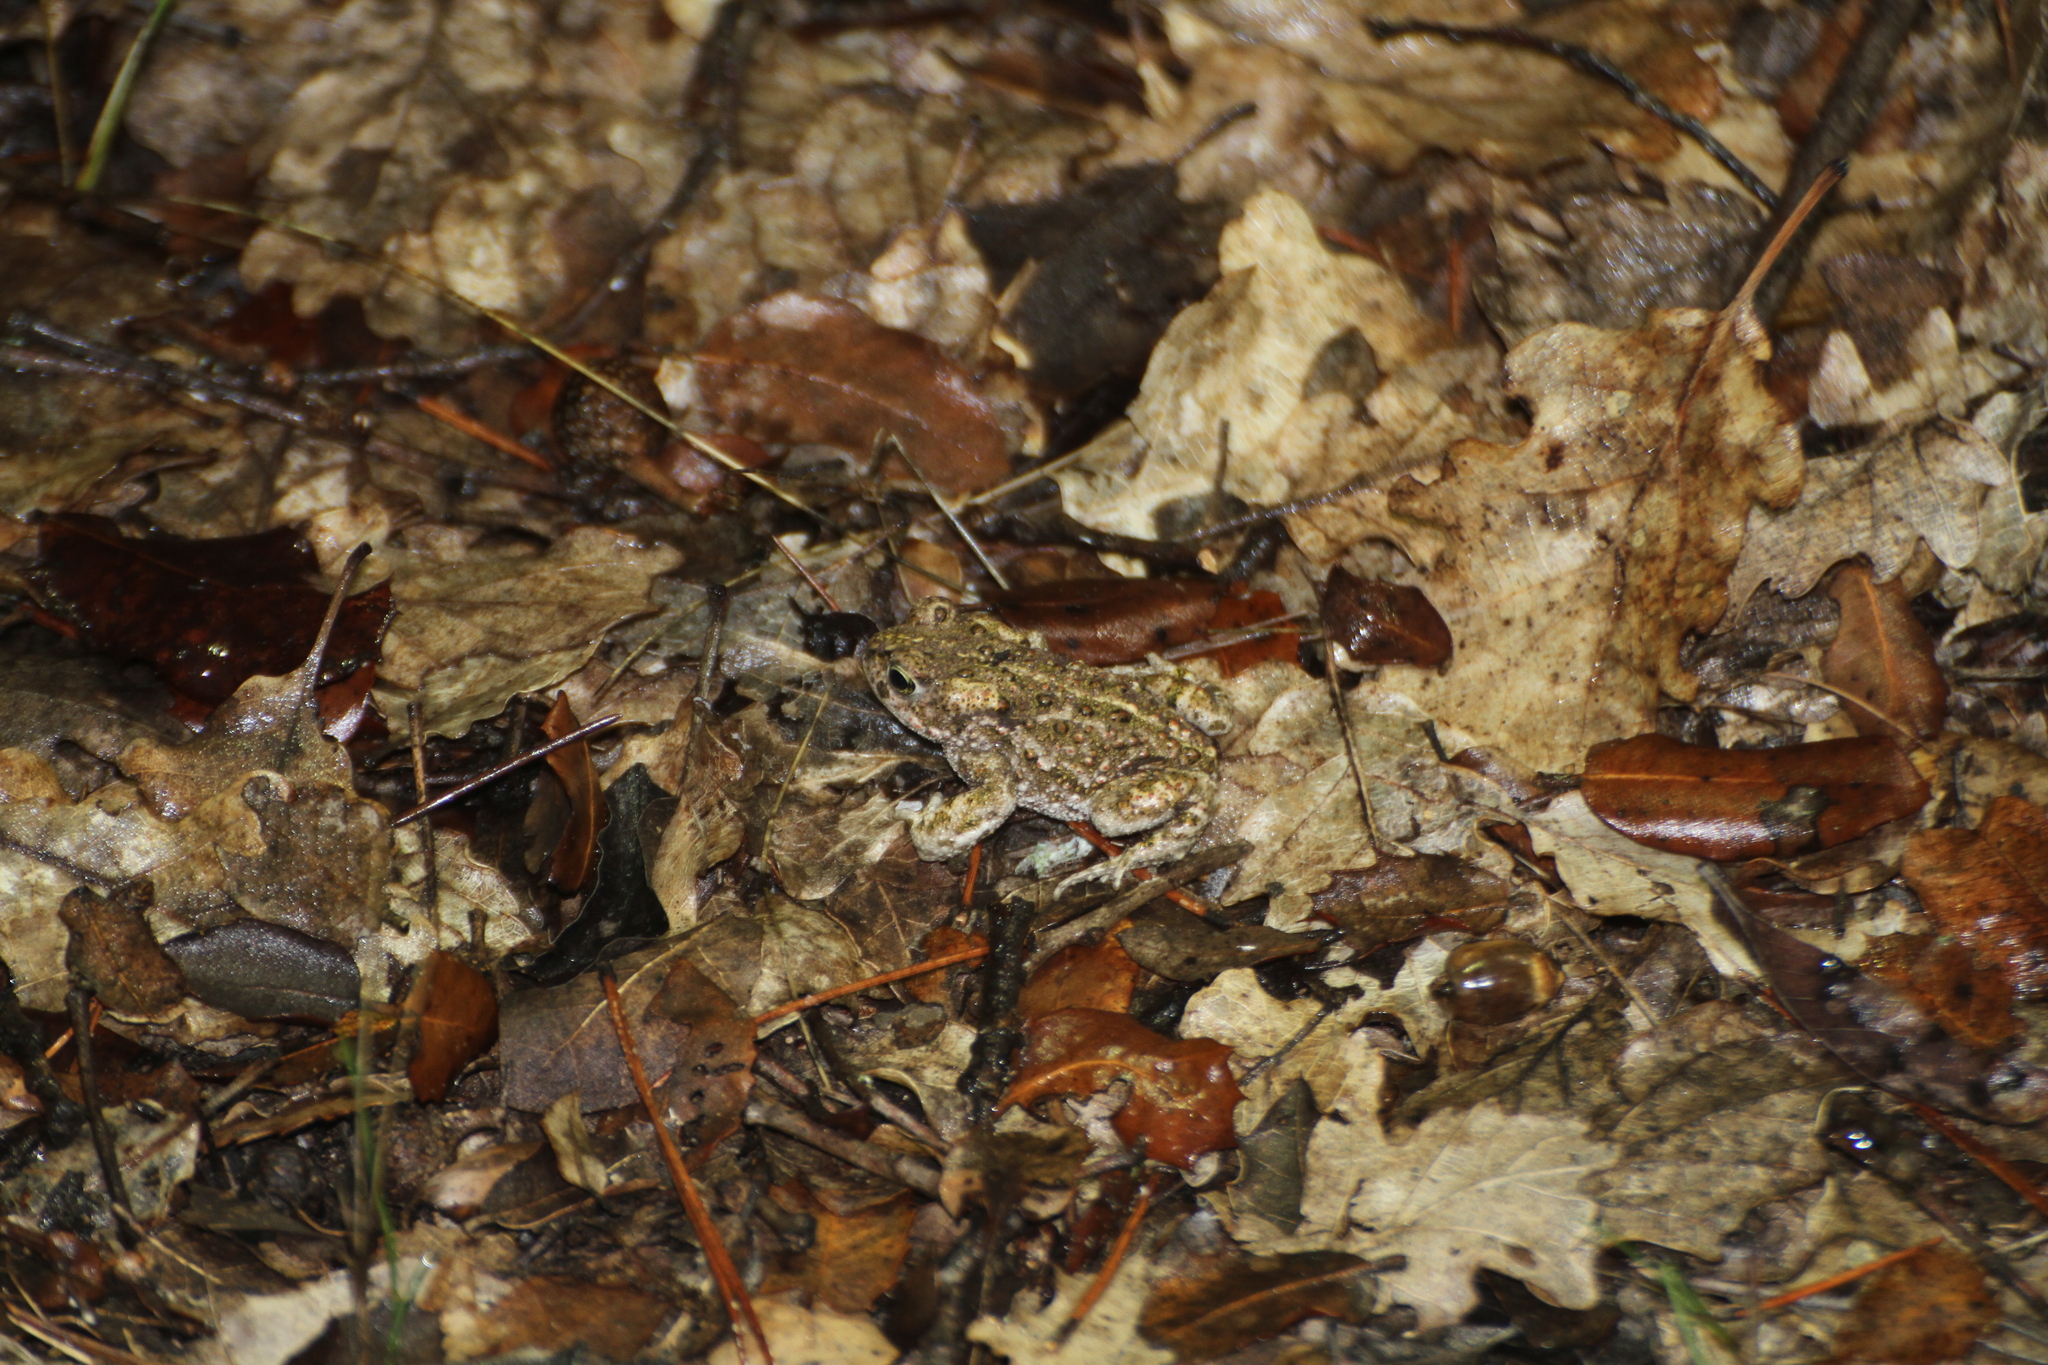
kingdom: Animalia
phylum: Chordata
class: Amphibia
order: Anura
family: Bufonidae
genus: Epidalea
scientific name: Epidalea calamita
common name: Natterjack toad
